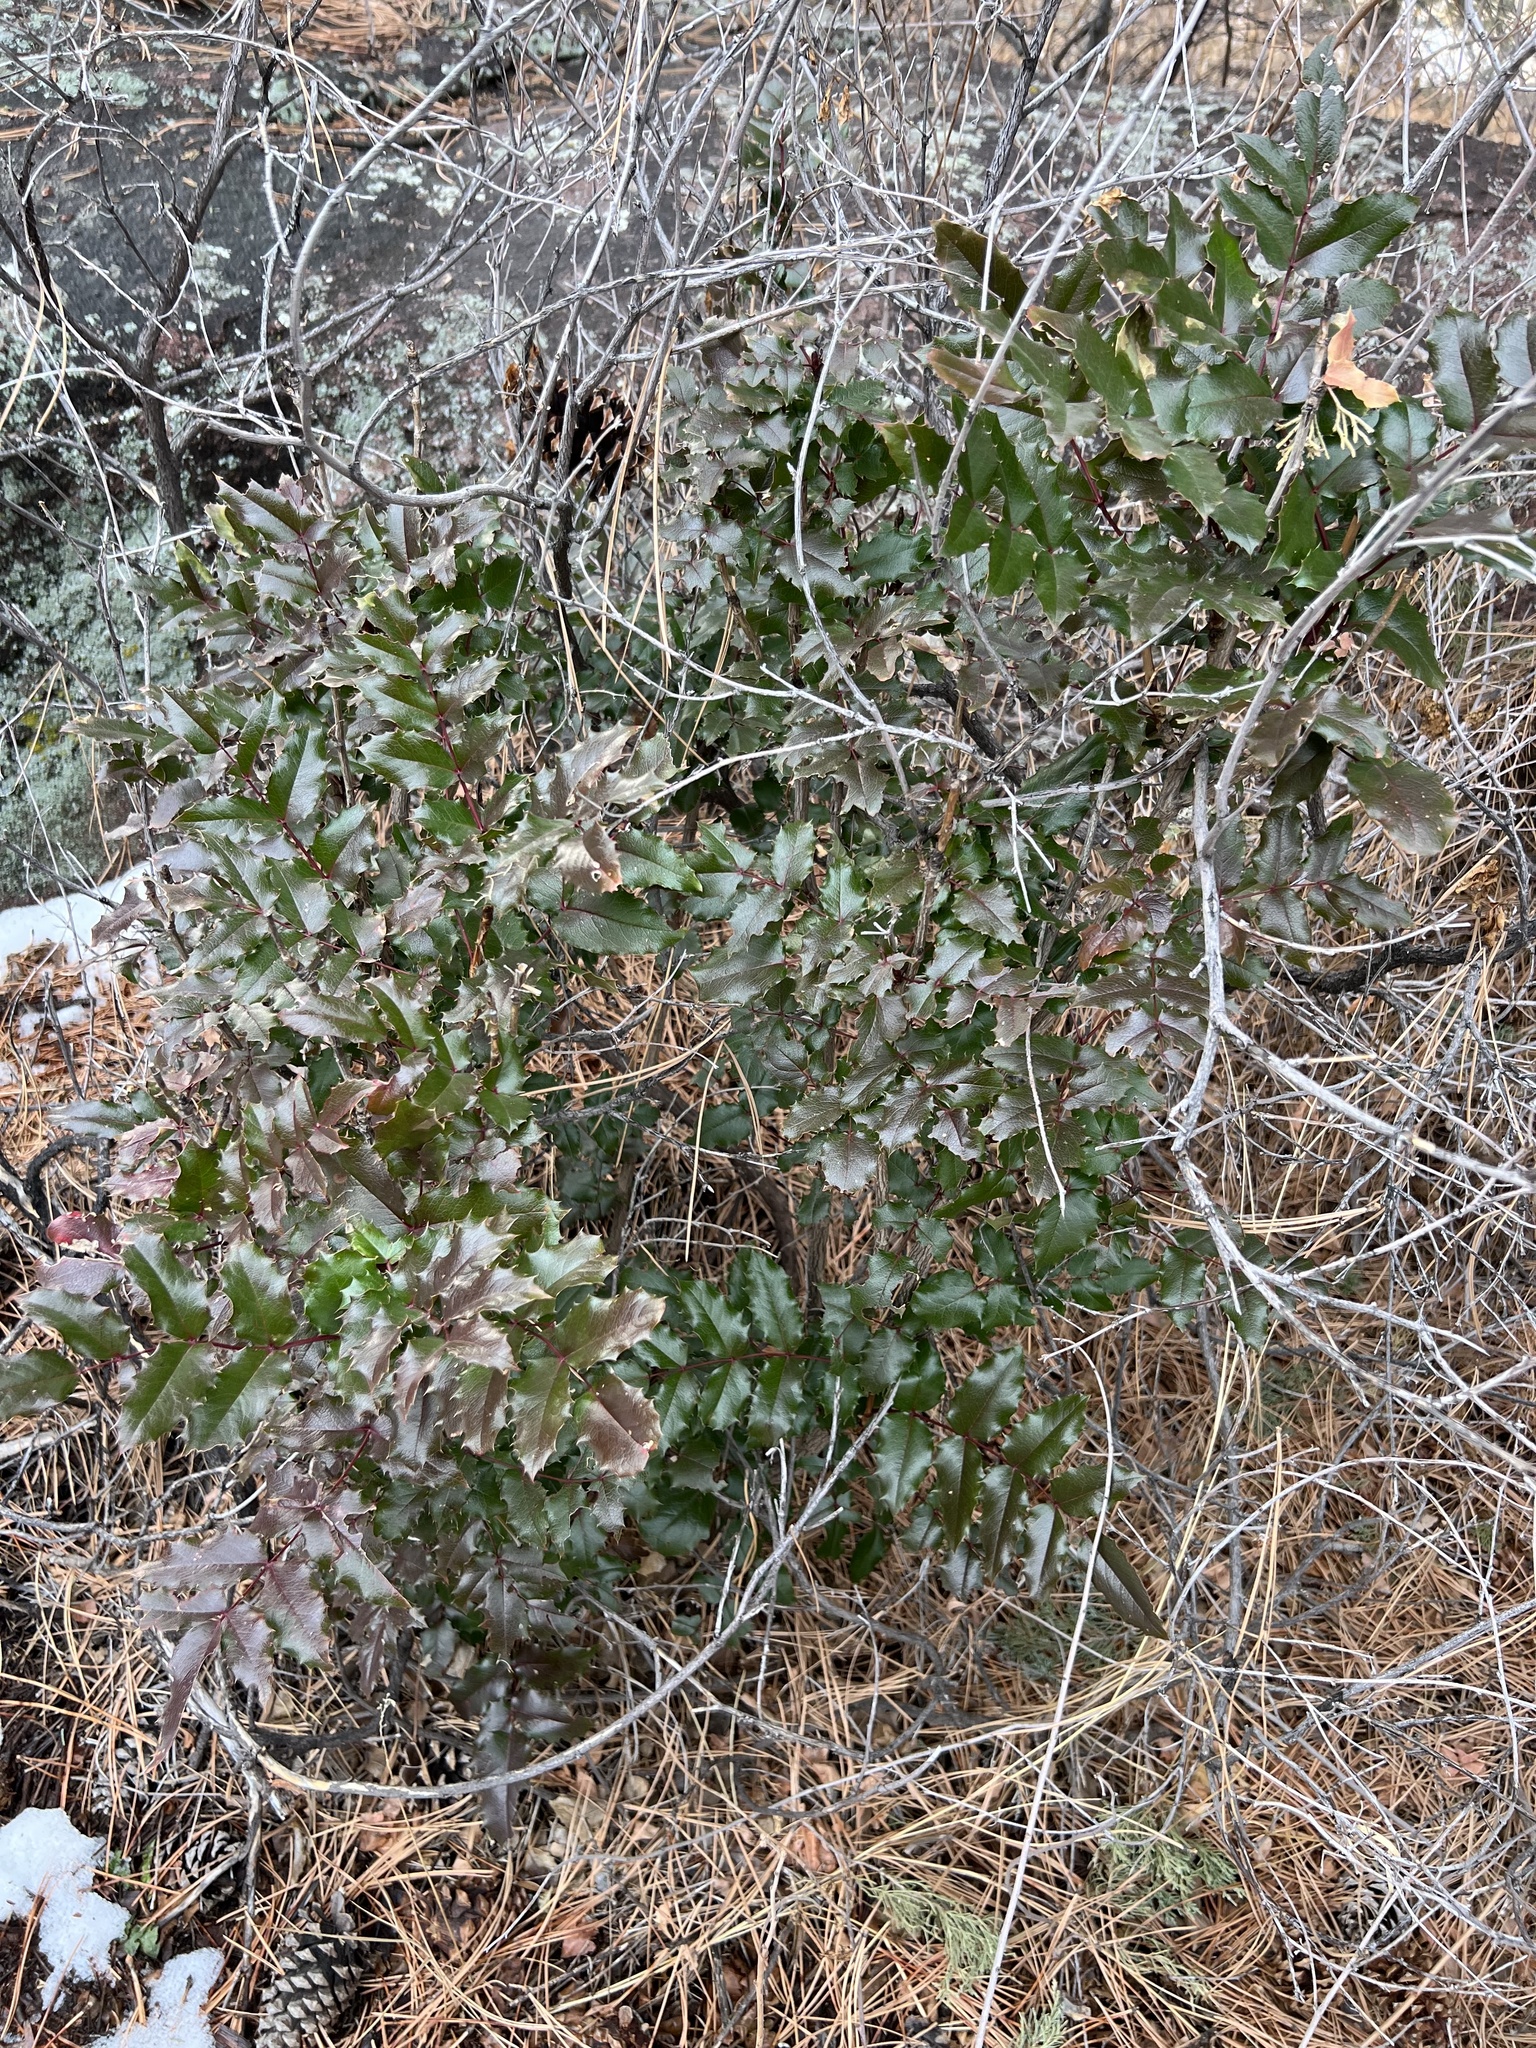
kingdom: Plantae
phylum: Tracheophyta
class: Magnoliopsida
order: Ranunculales
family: Berberidaceae
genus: Mahonia
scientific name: Mahonia aquifolium
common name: Oregon-grape
